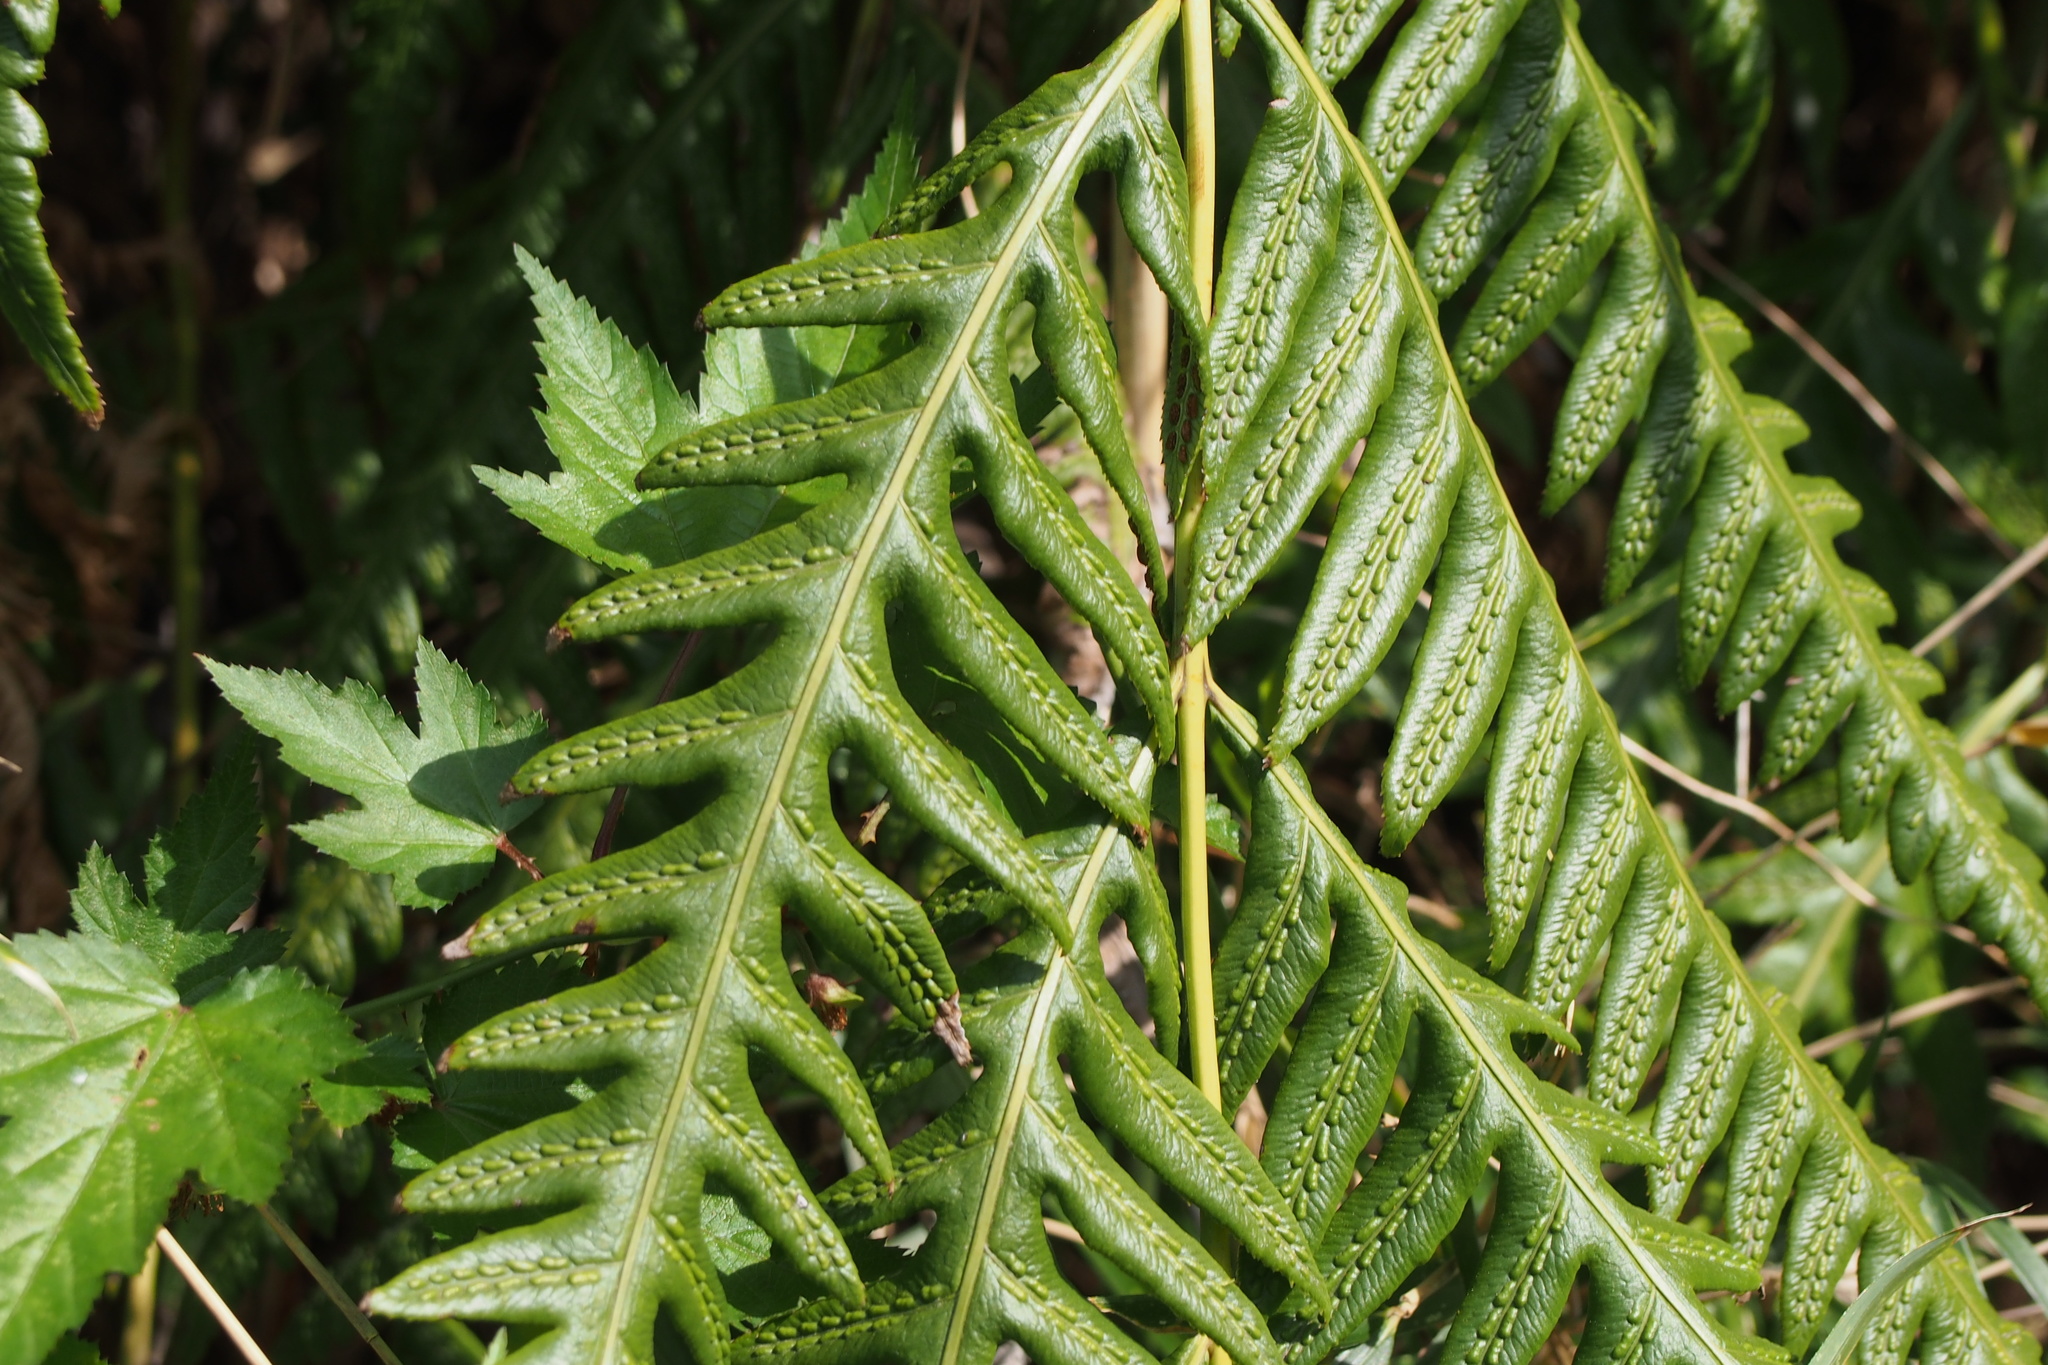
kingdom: Plantae
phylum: Tracheophyta
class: Polypodiopsida
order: Polypodiales
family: Blechnaceae
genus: Woodwardia
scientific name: Woodwardia orientalis
